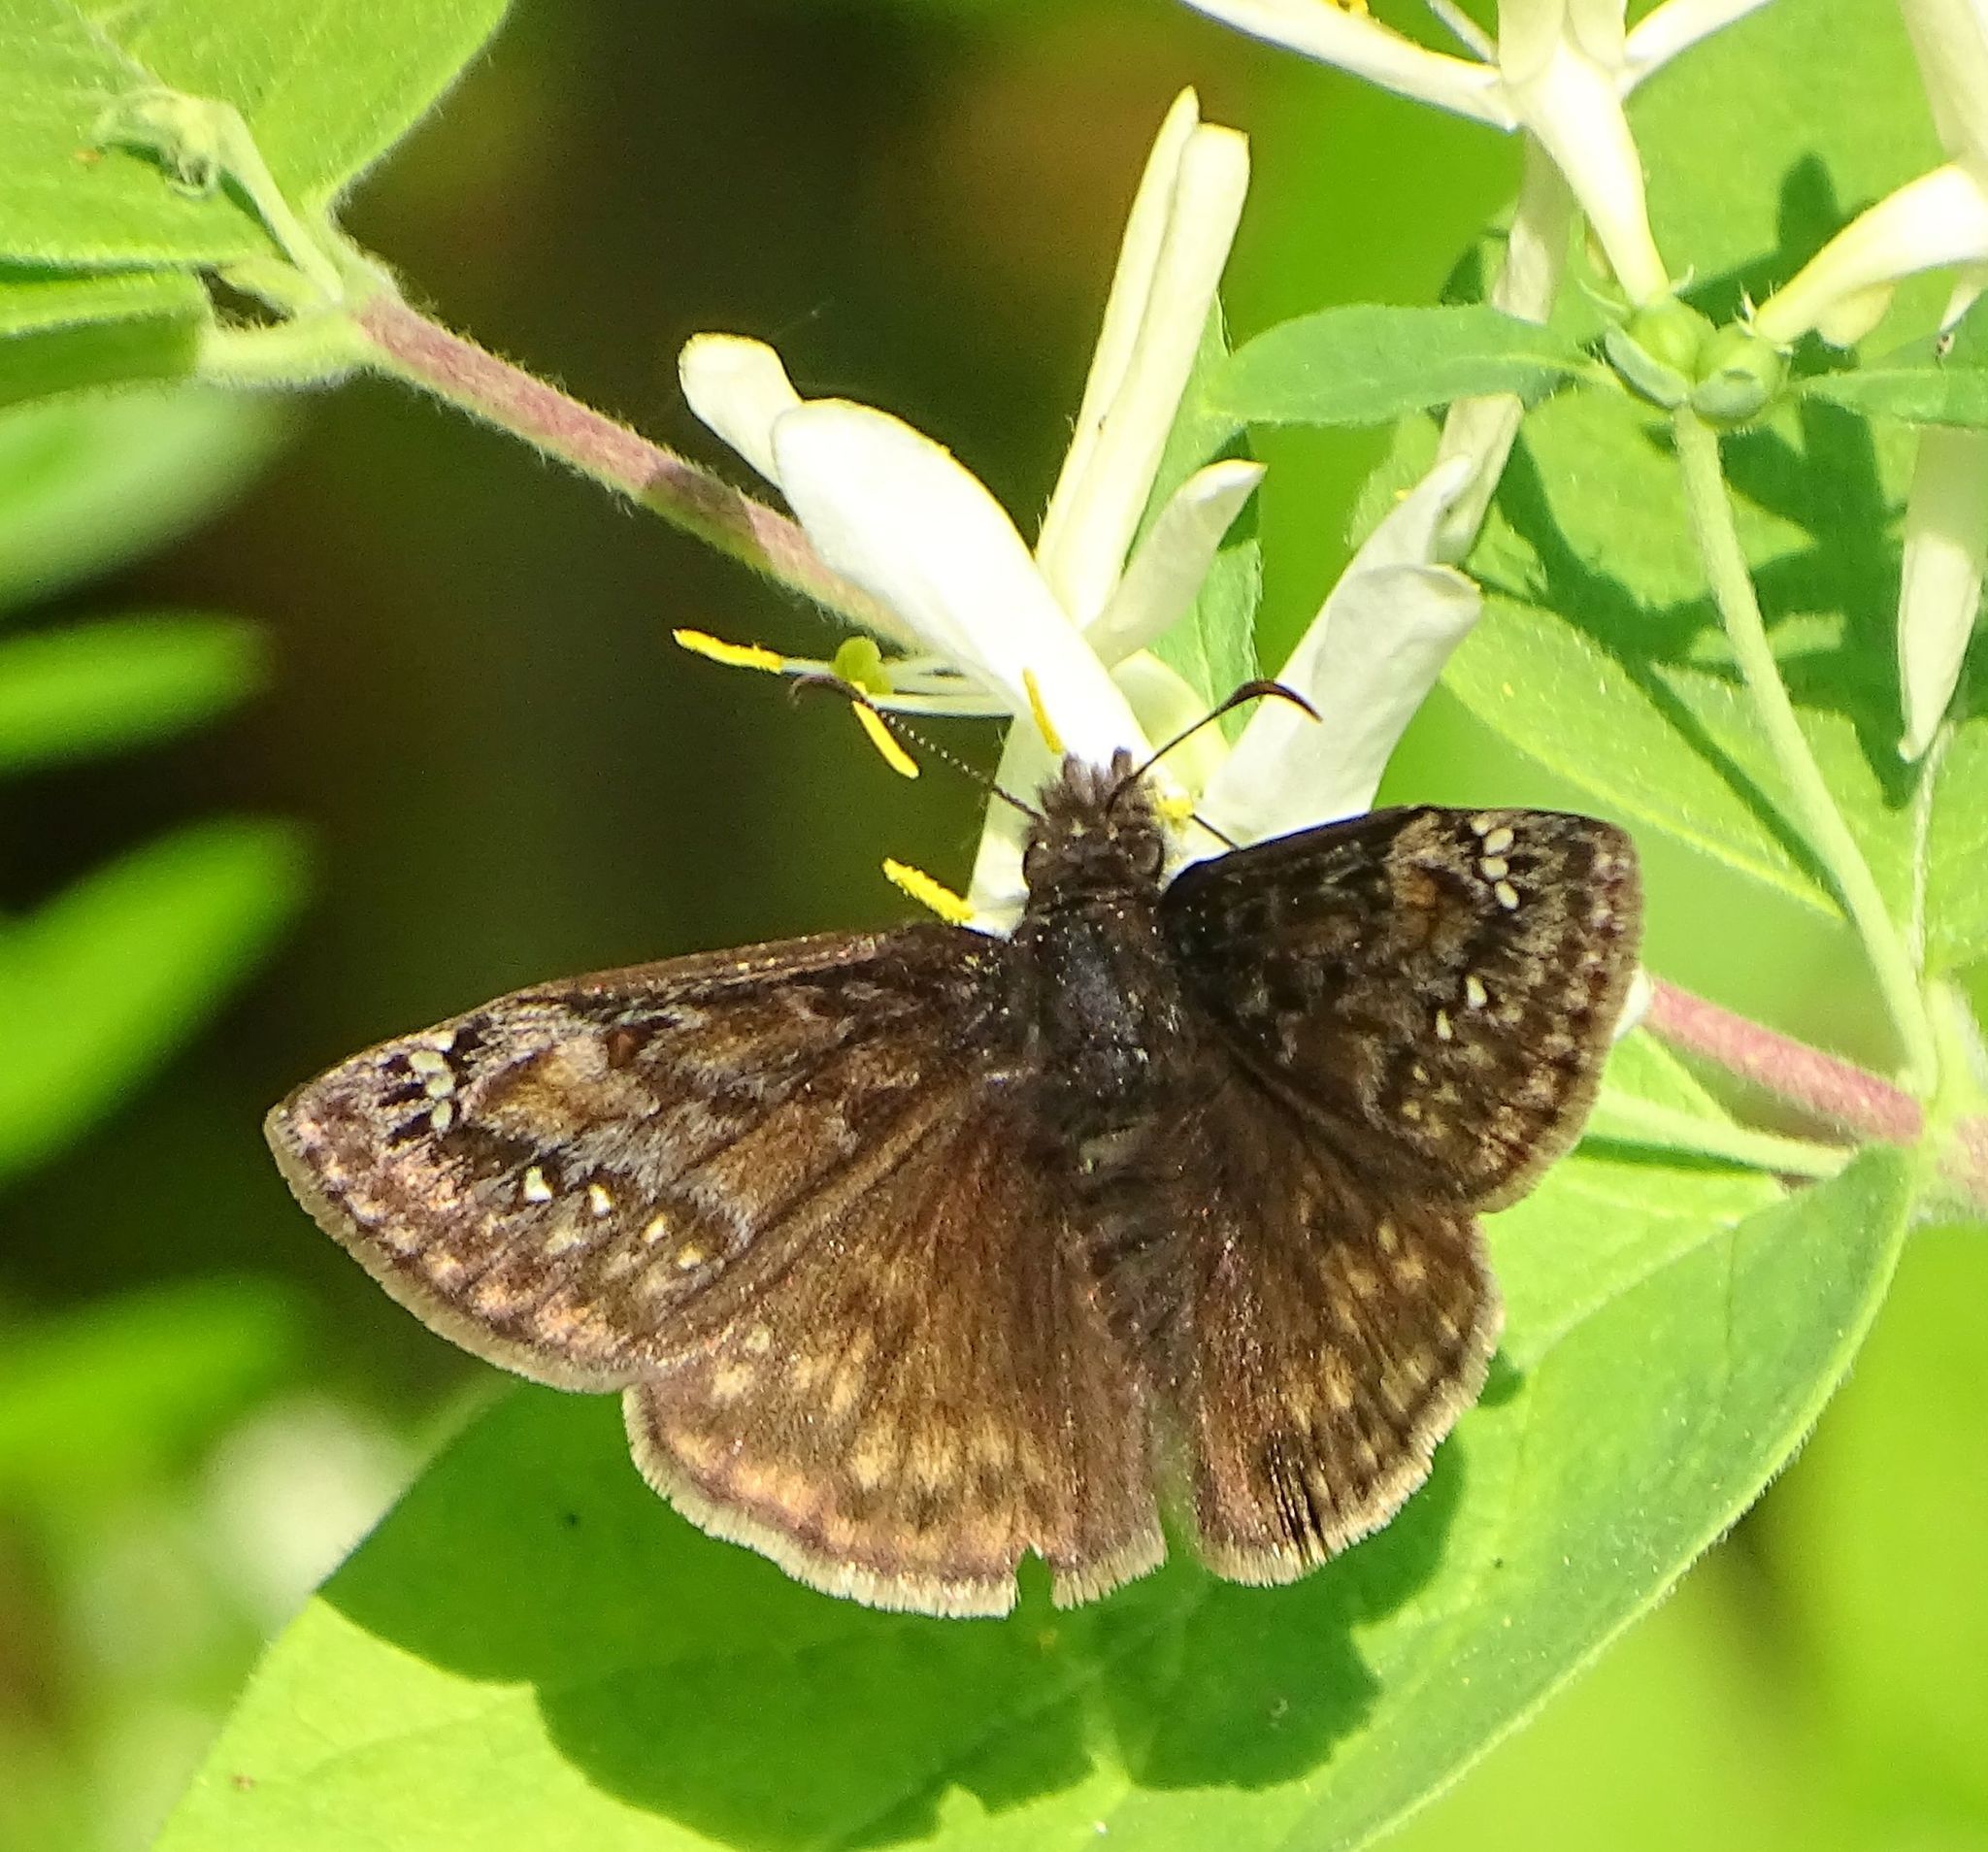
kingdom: Animalia
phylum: Arthropoda
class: Insecta
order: Lepidoptera
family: Hesperiidae
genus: Erynnis
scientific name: Erynnis juvenalis
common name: Juvenal's duskywing
